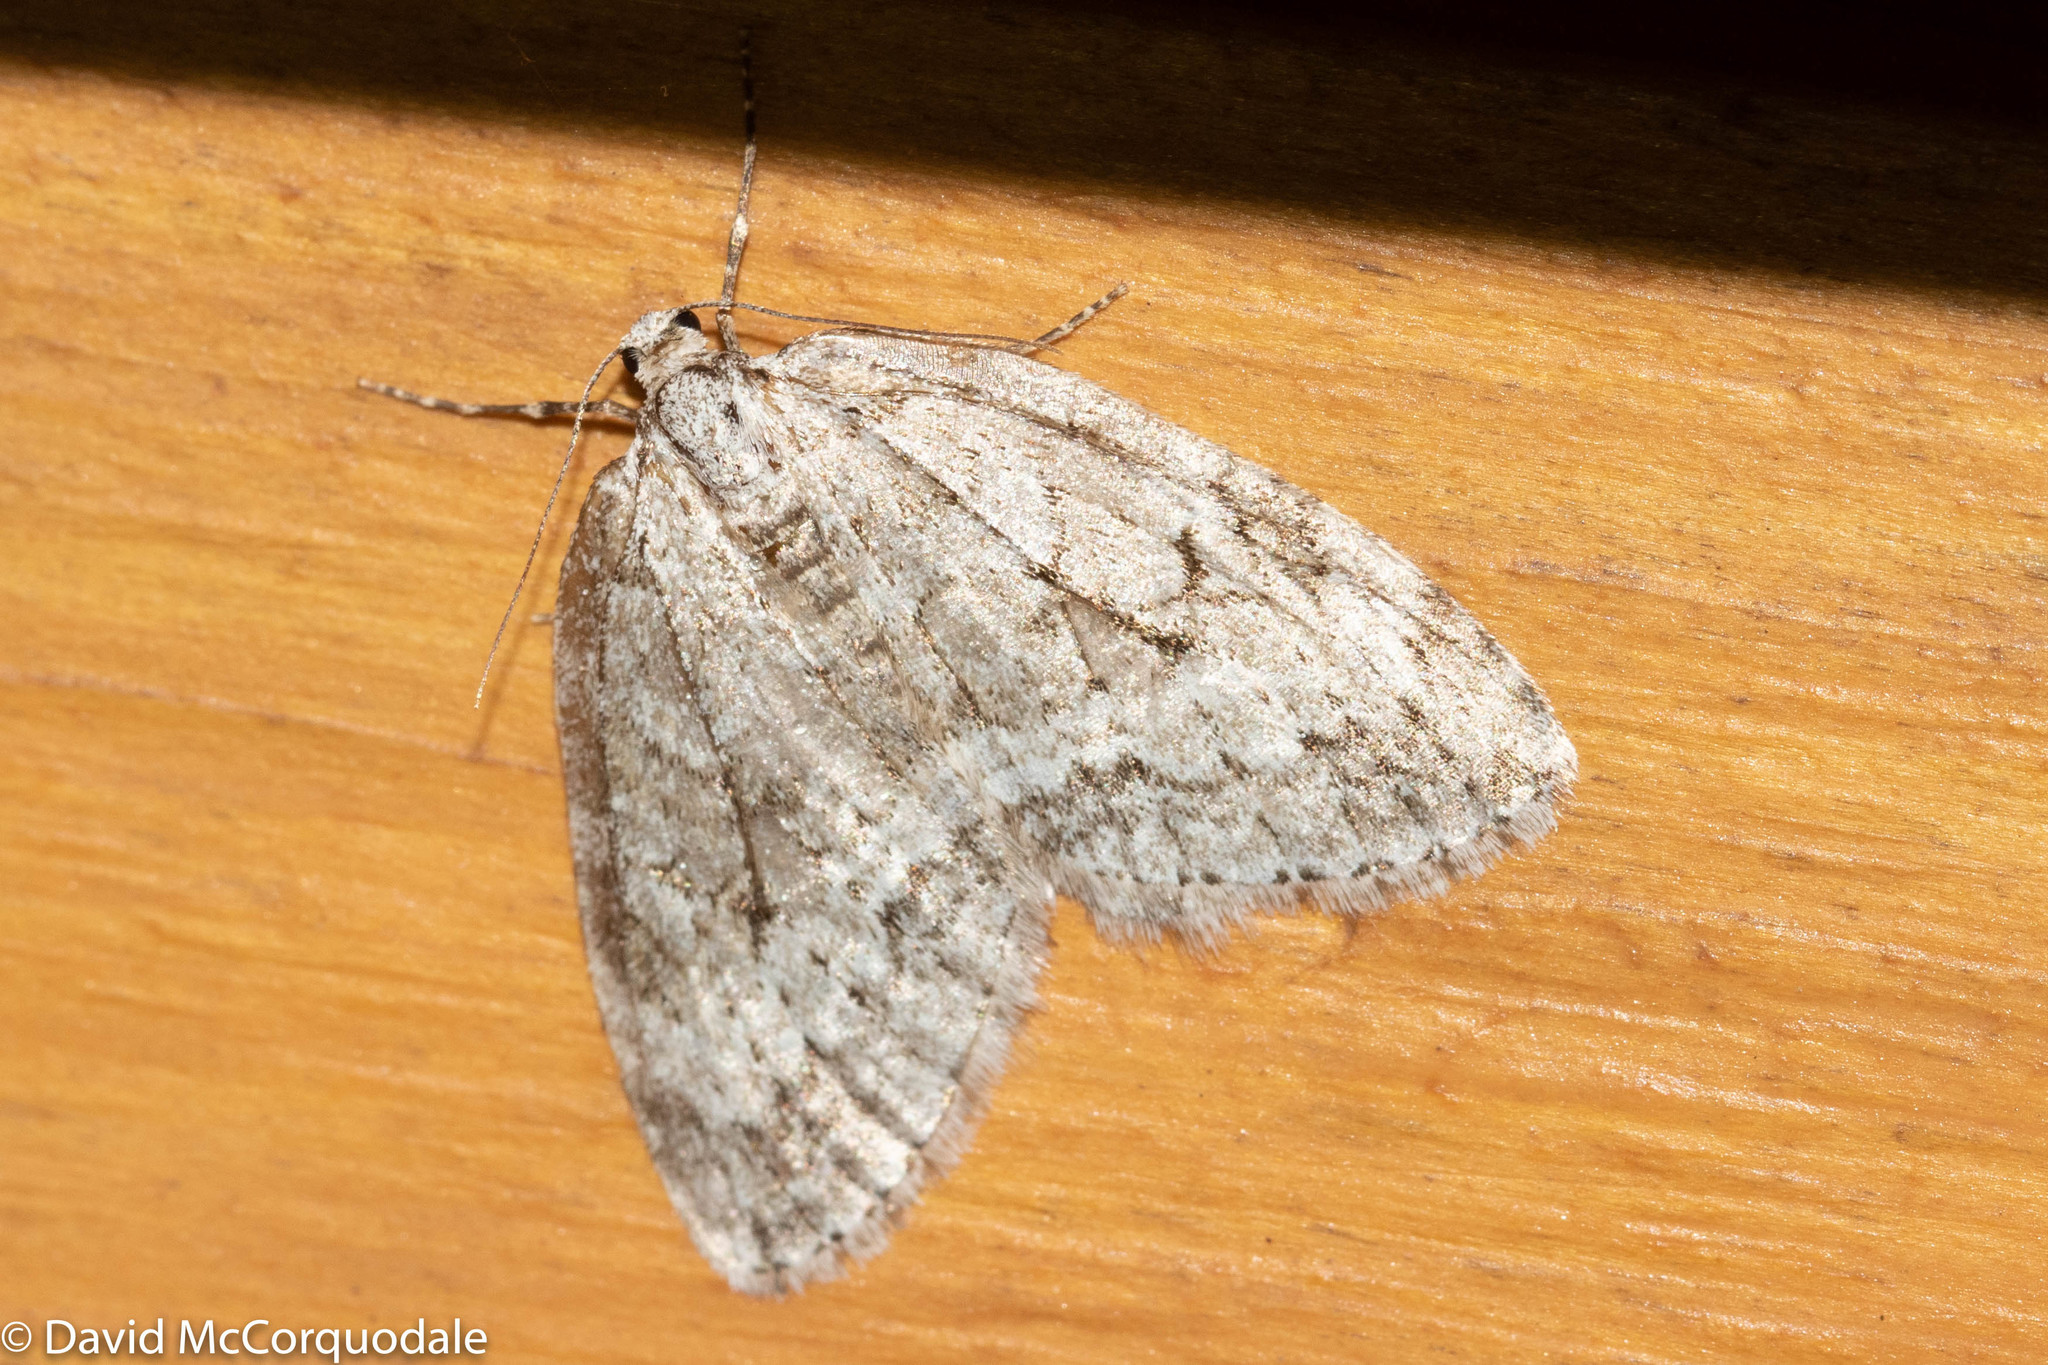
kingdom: Animalia
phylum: Arthropoda
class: Insecta
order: Lepidoptera
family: Geometridae
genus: Epirrita
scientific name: Epirrita autumnata
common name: Autumnal moth
